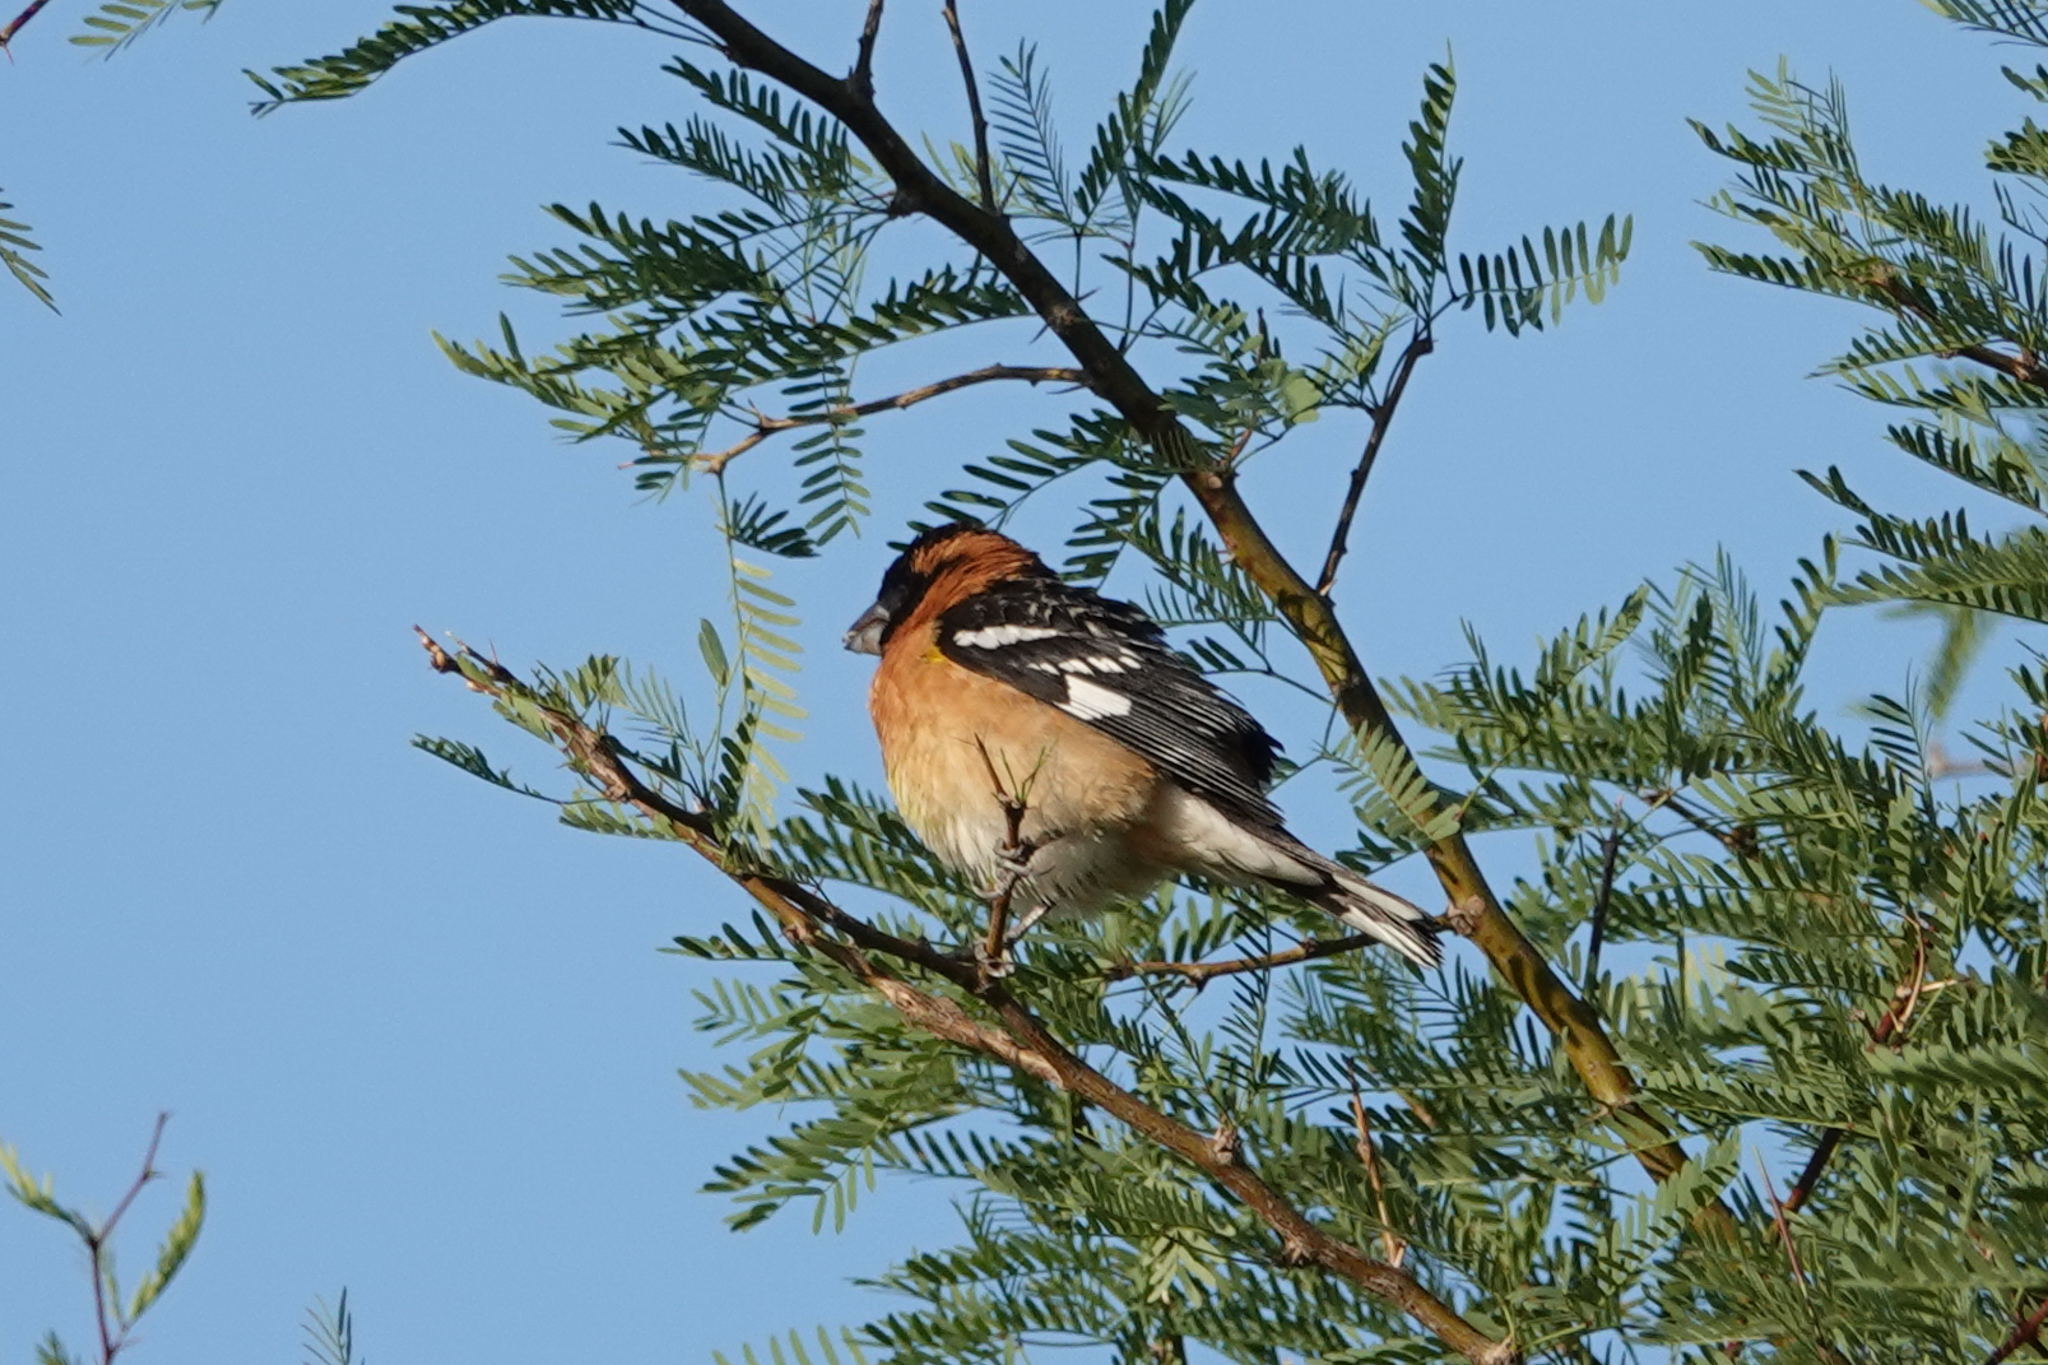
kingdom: Animalia
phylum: Chordata
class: Aves
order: Passeriformes
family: Cardinalidae
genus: Pheucticus
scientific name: Pheucticus melanocephalus
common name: Black-headed grosbeak
